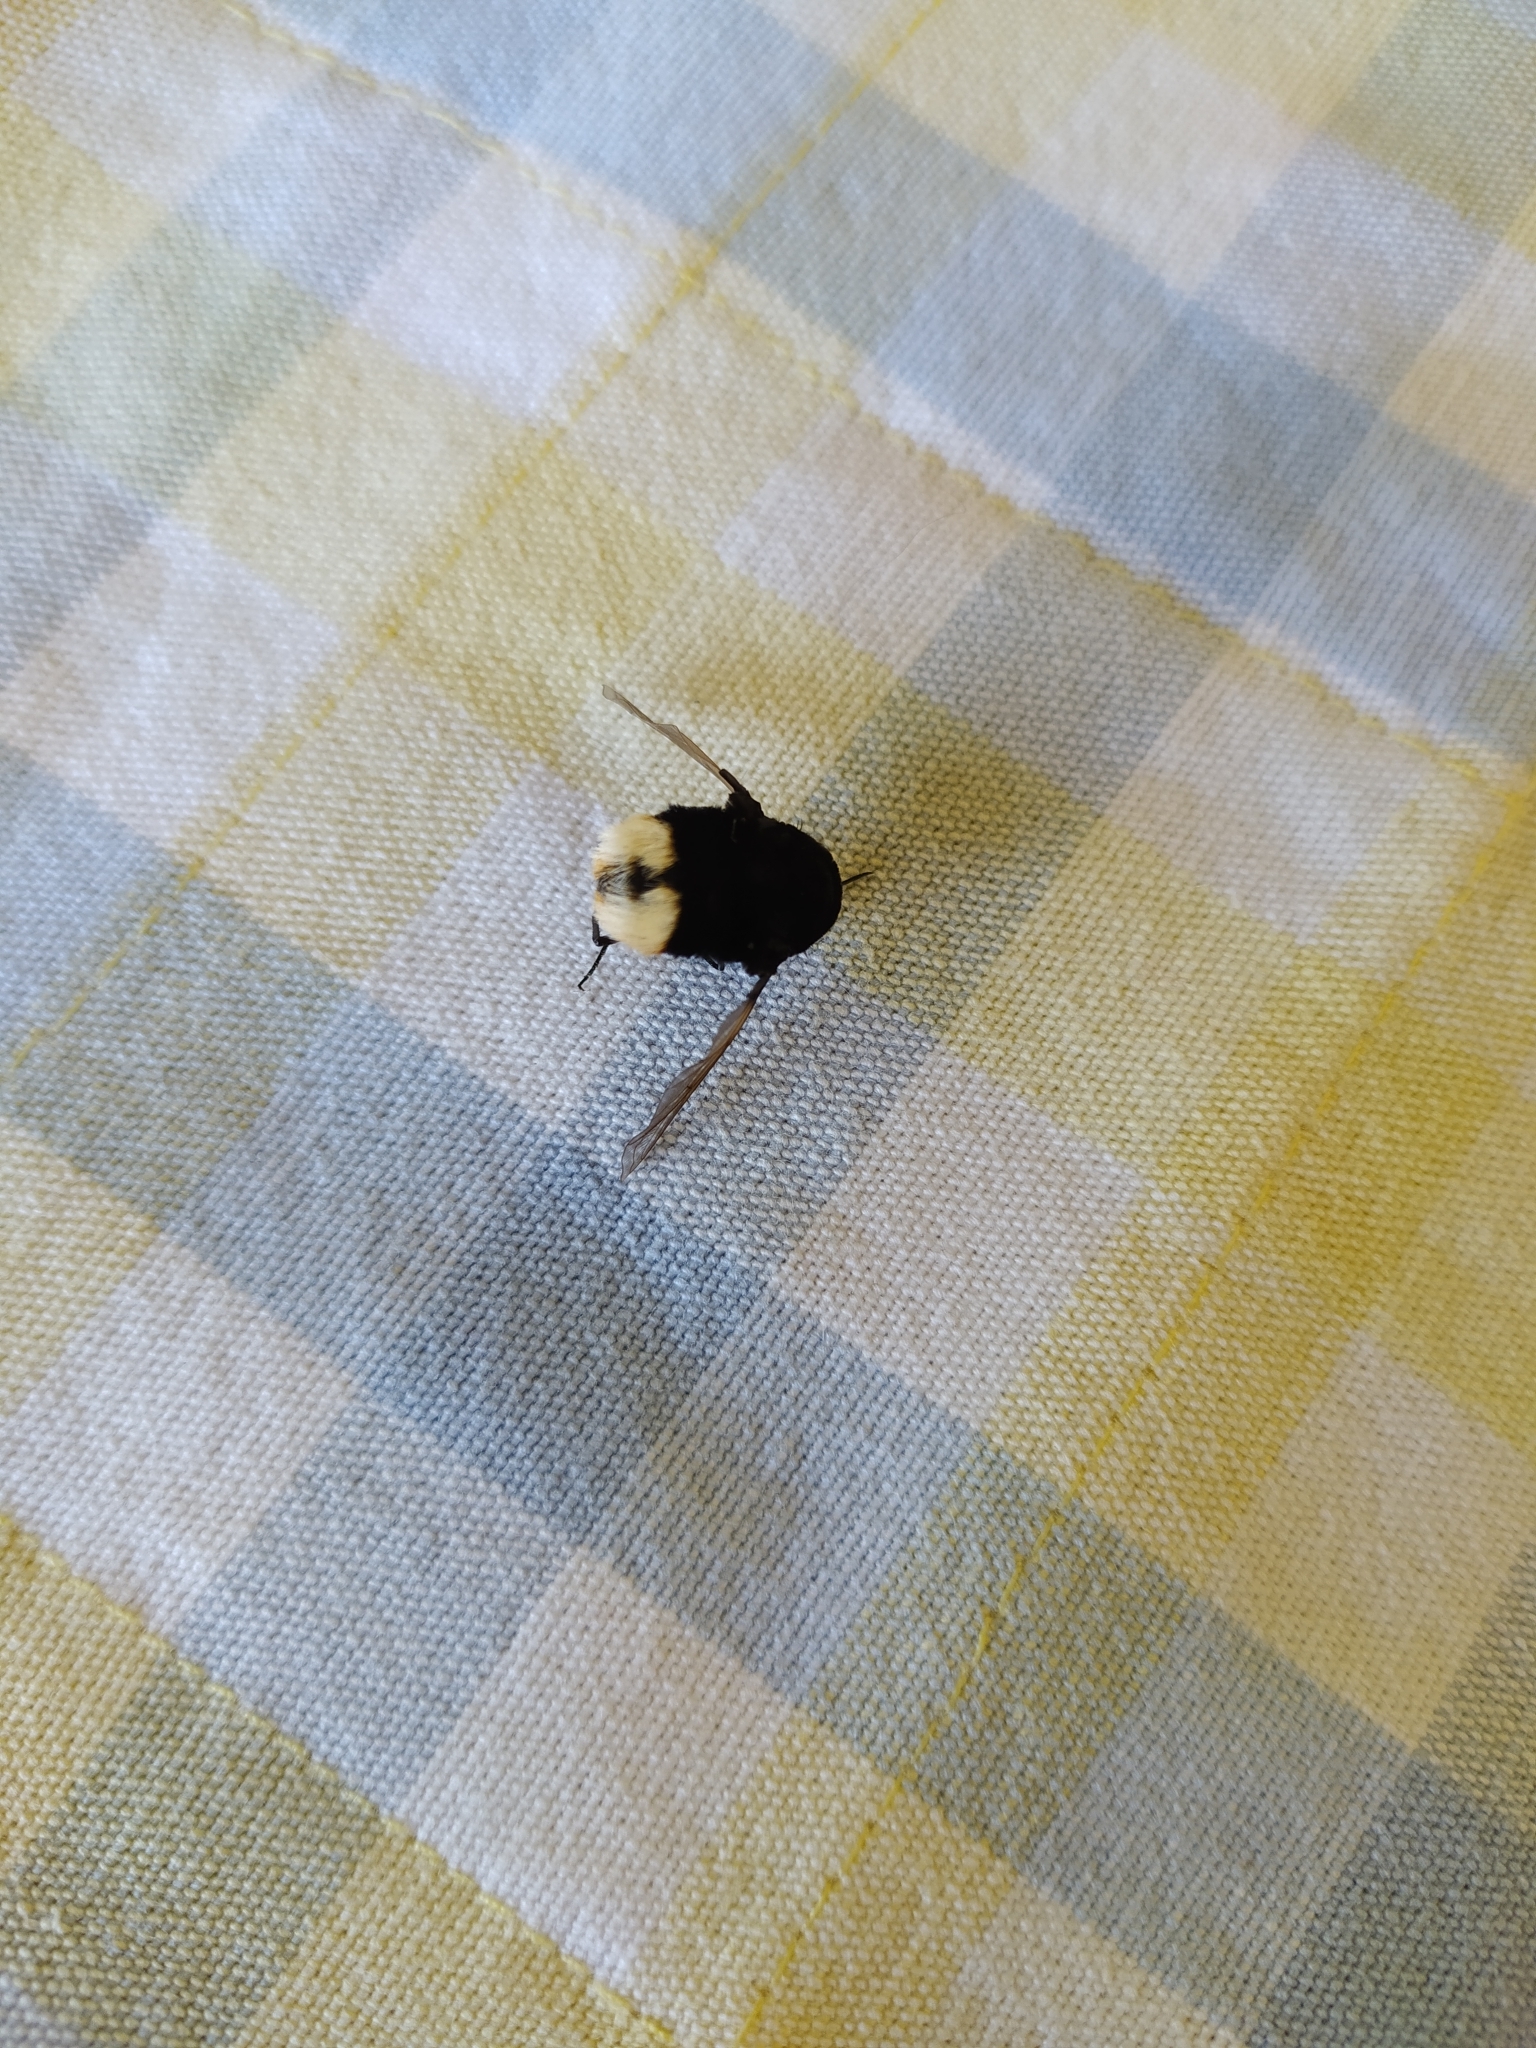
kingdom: Animalia
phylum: Arthropoda
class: Insecta
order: Diptera
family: Bombyliidae
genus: Bombomyia
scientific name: Bombomyia discoidea
